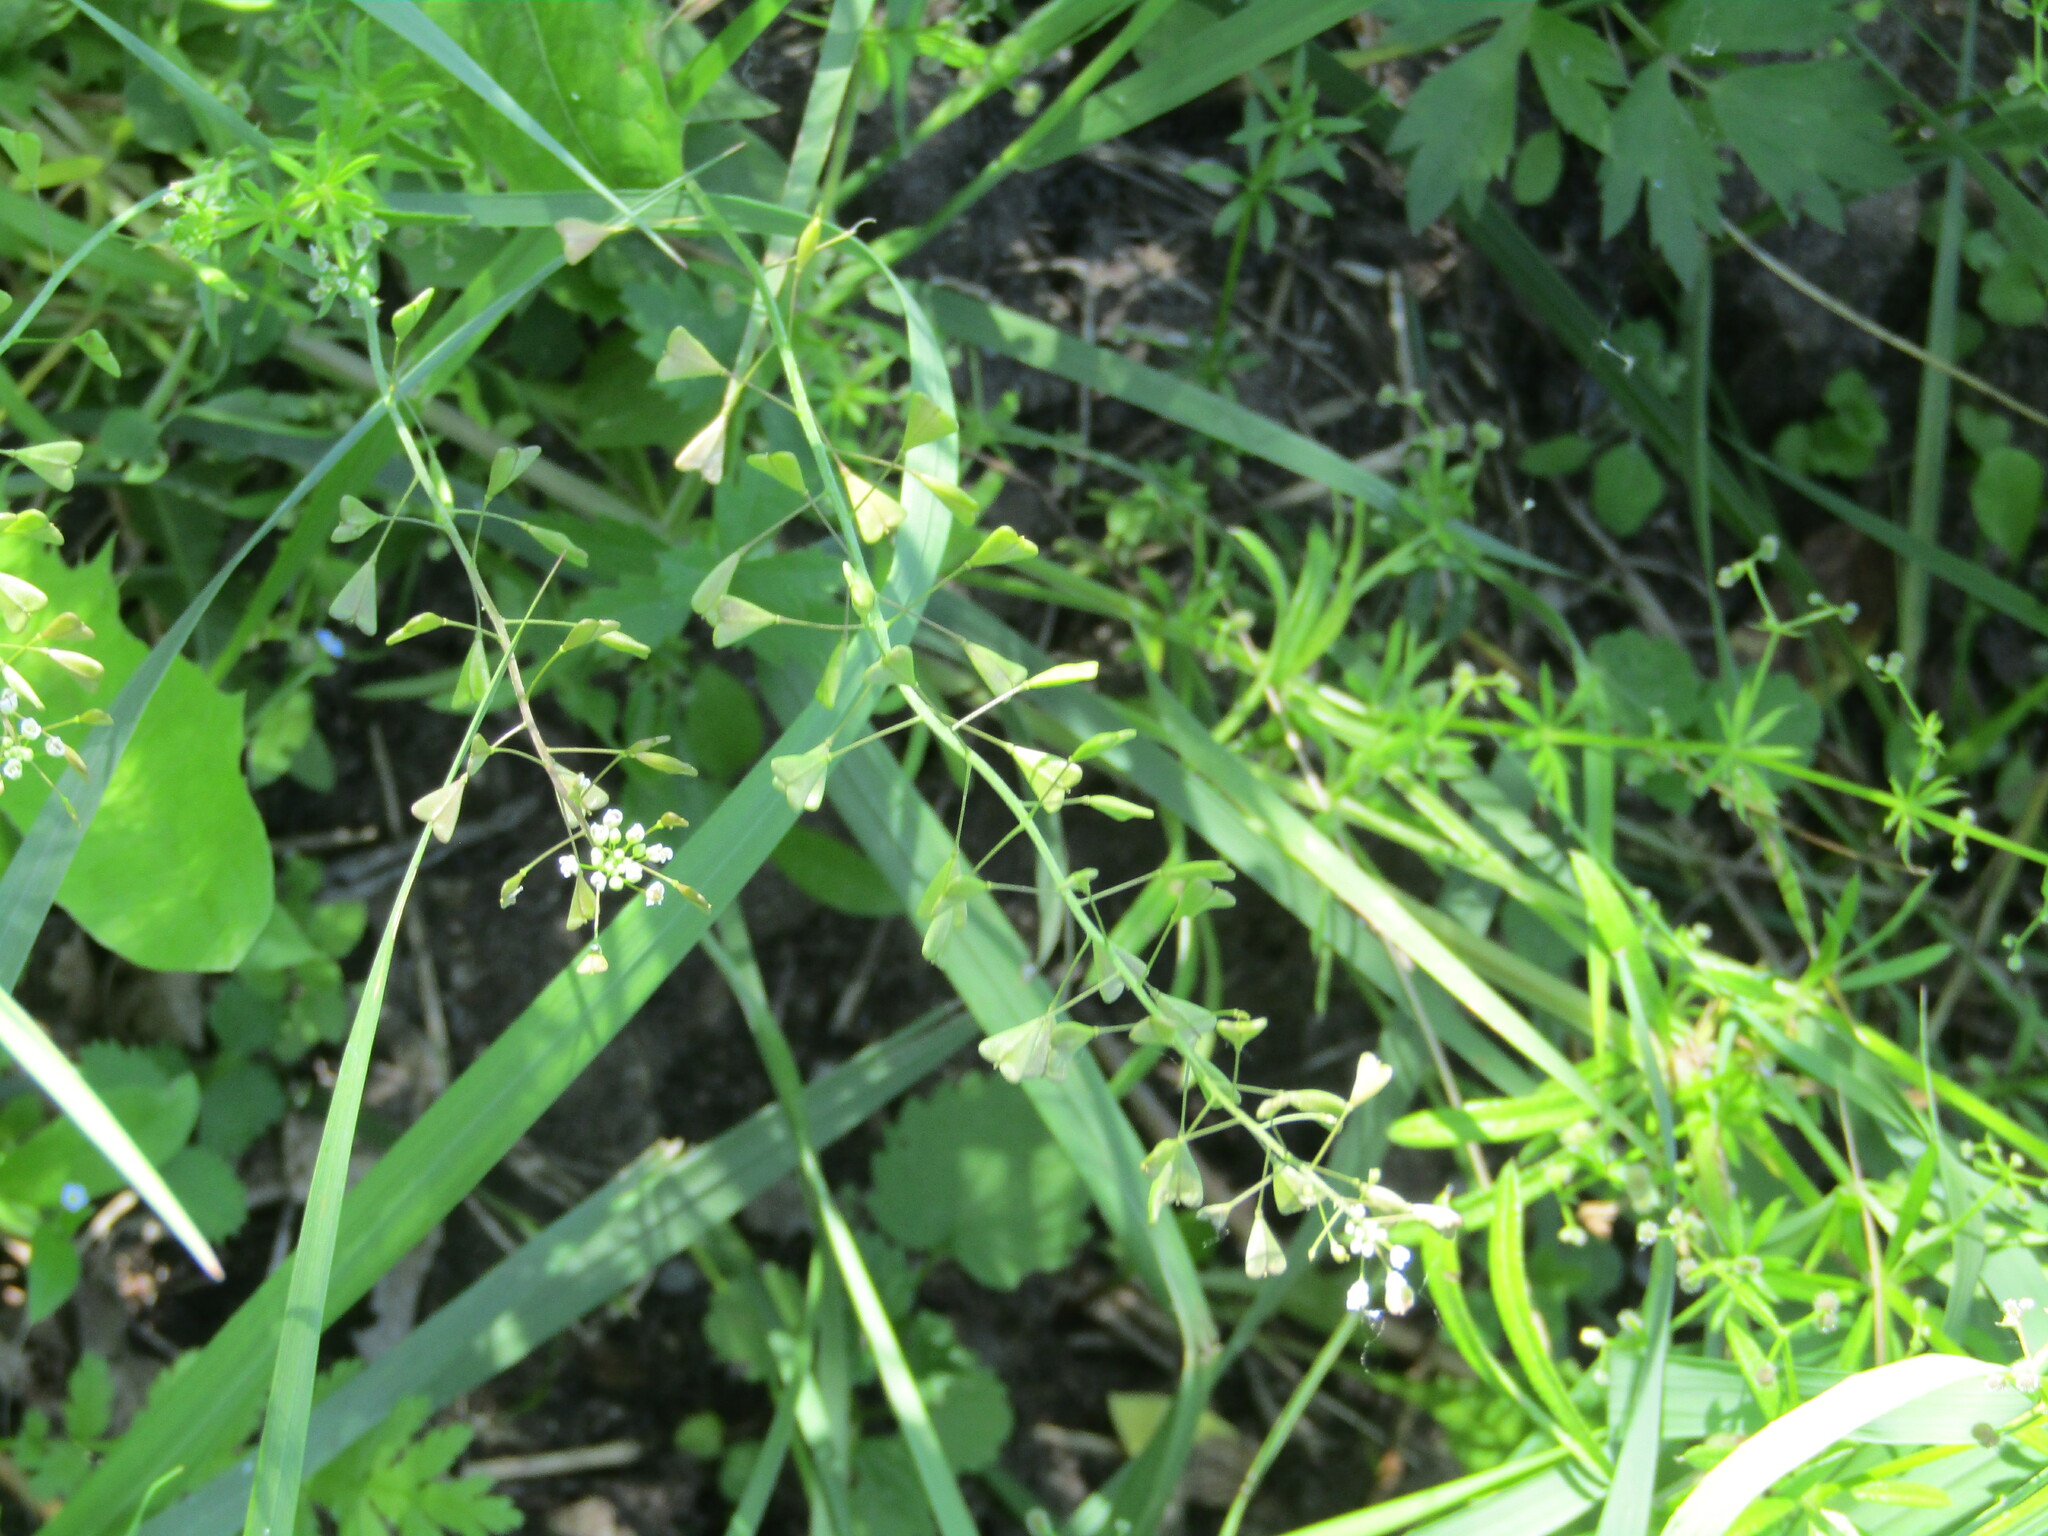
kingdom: Plantae
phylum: Tracheophyta
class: Magnoliopsida
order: Brassicales
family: Brassicaceae
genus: Capsella
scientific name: Capsella bursa-pastoris
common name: Shepherd's purse
